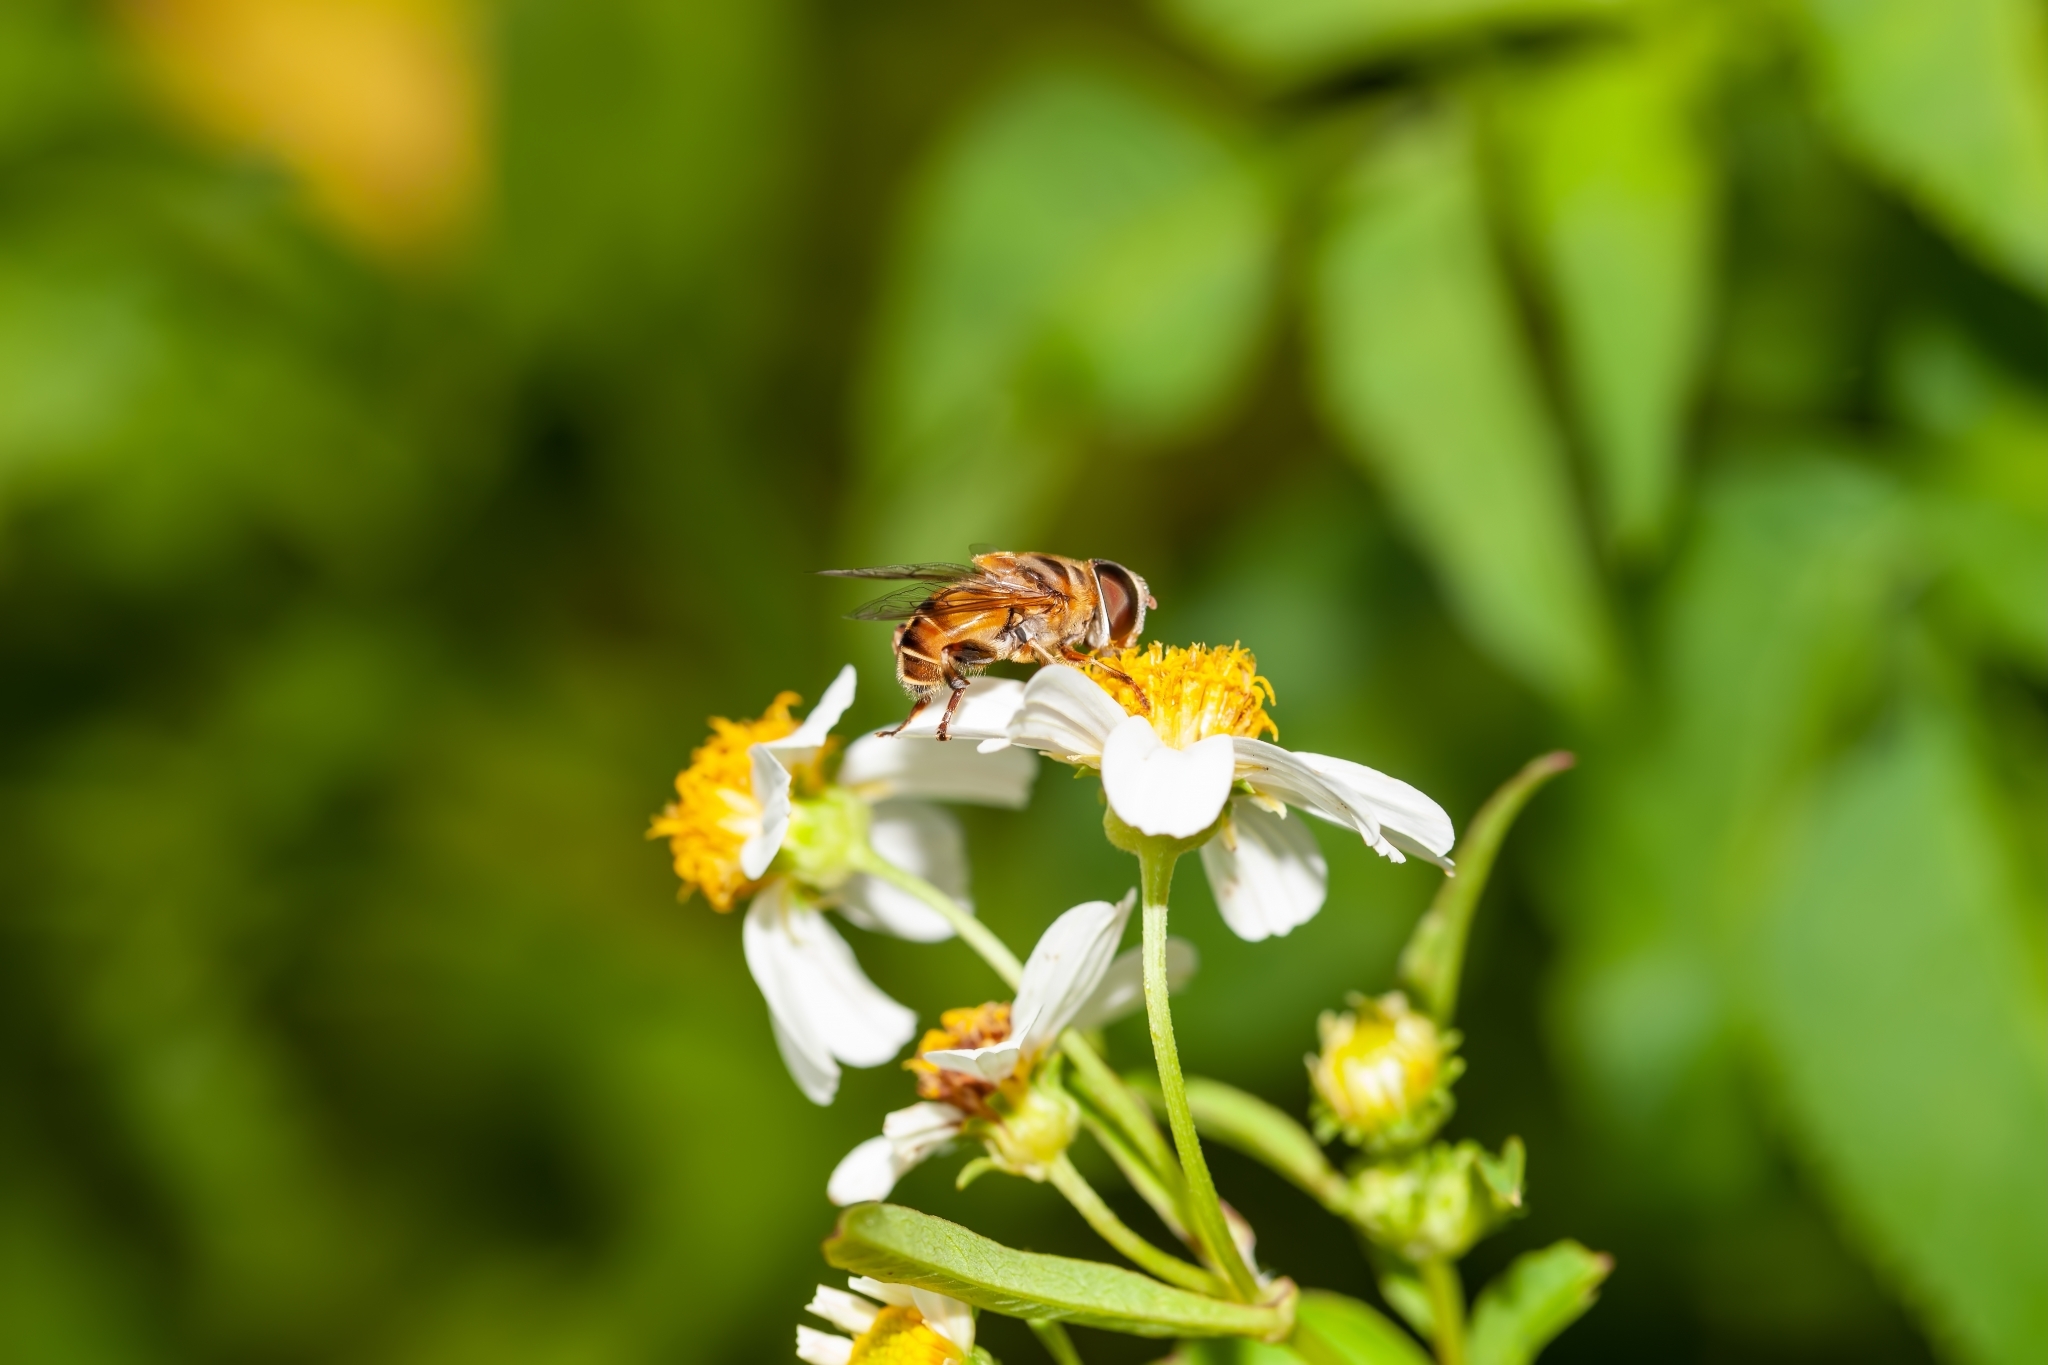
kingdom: Animalia
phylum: Arthropoda
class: Insecta
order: Diptera
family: Syrphidae
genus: Palpada
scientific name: Palpada vinetorum
